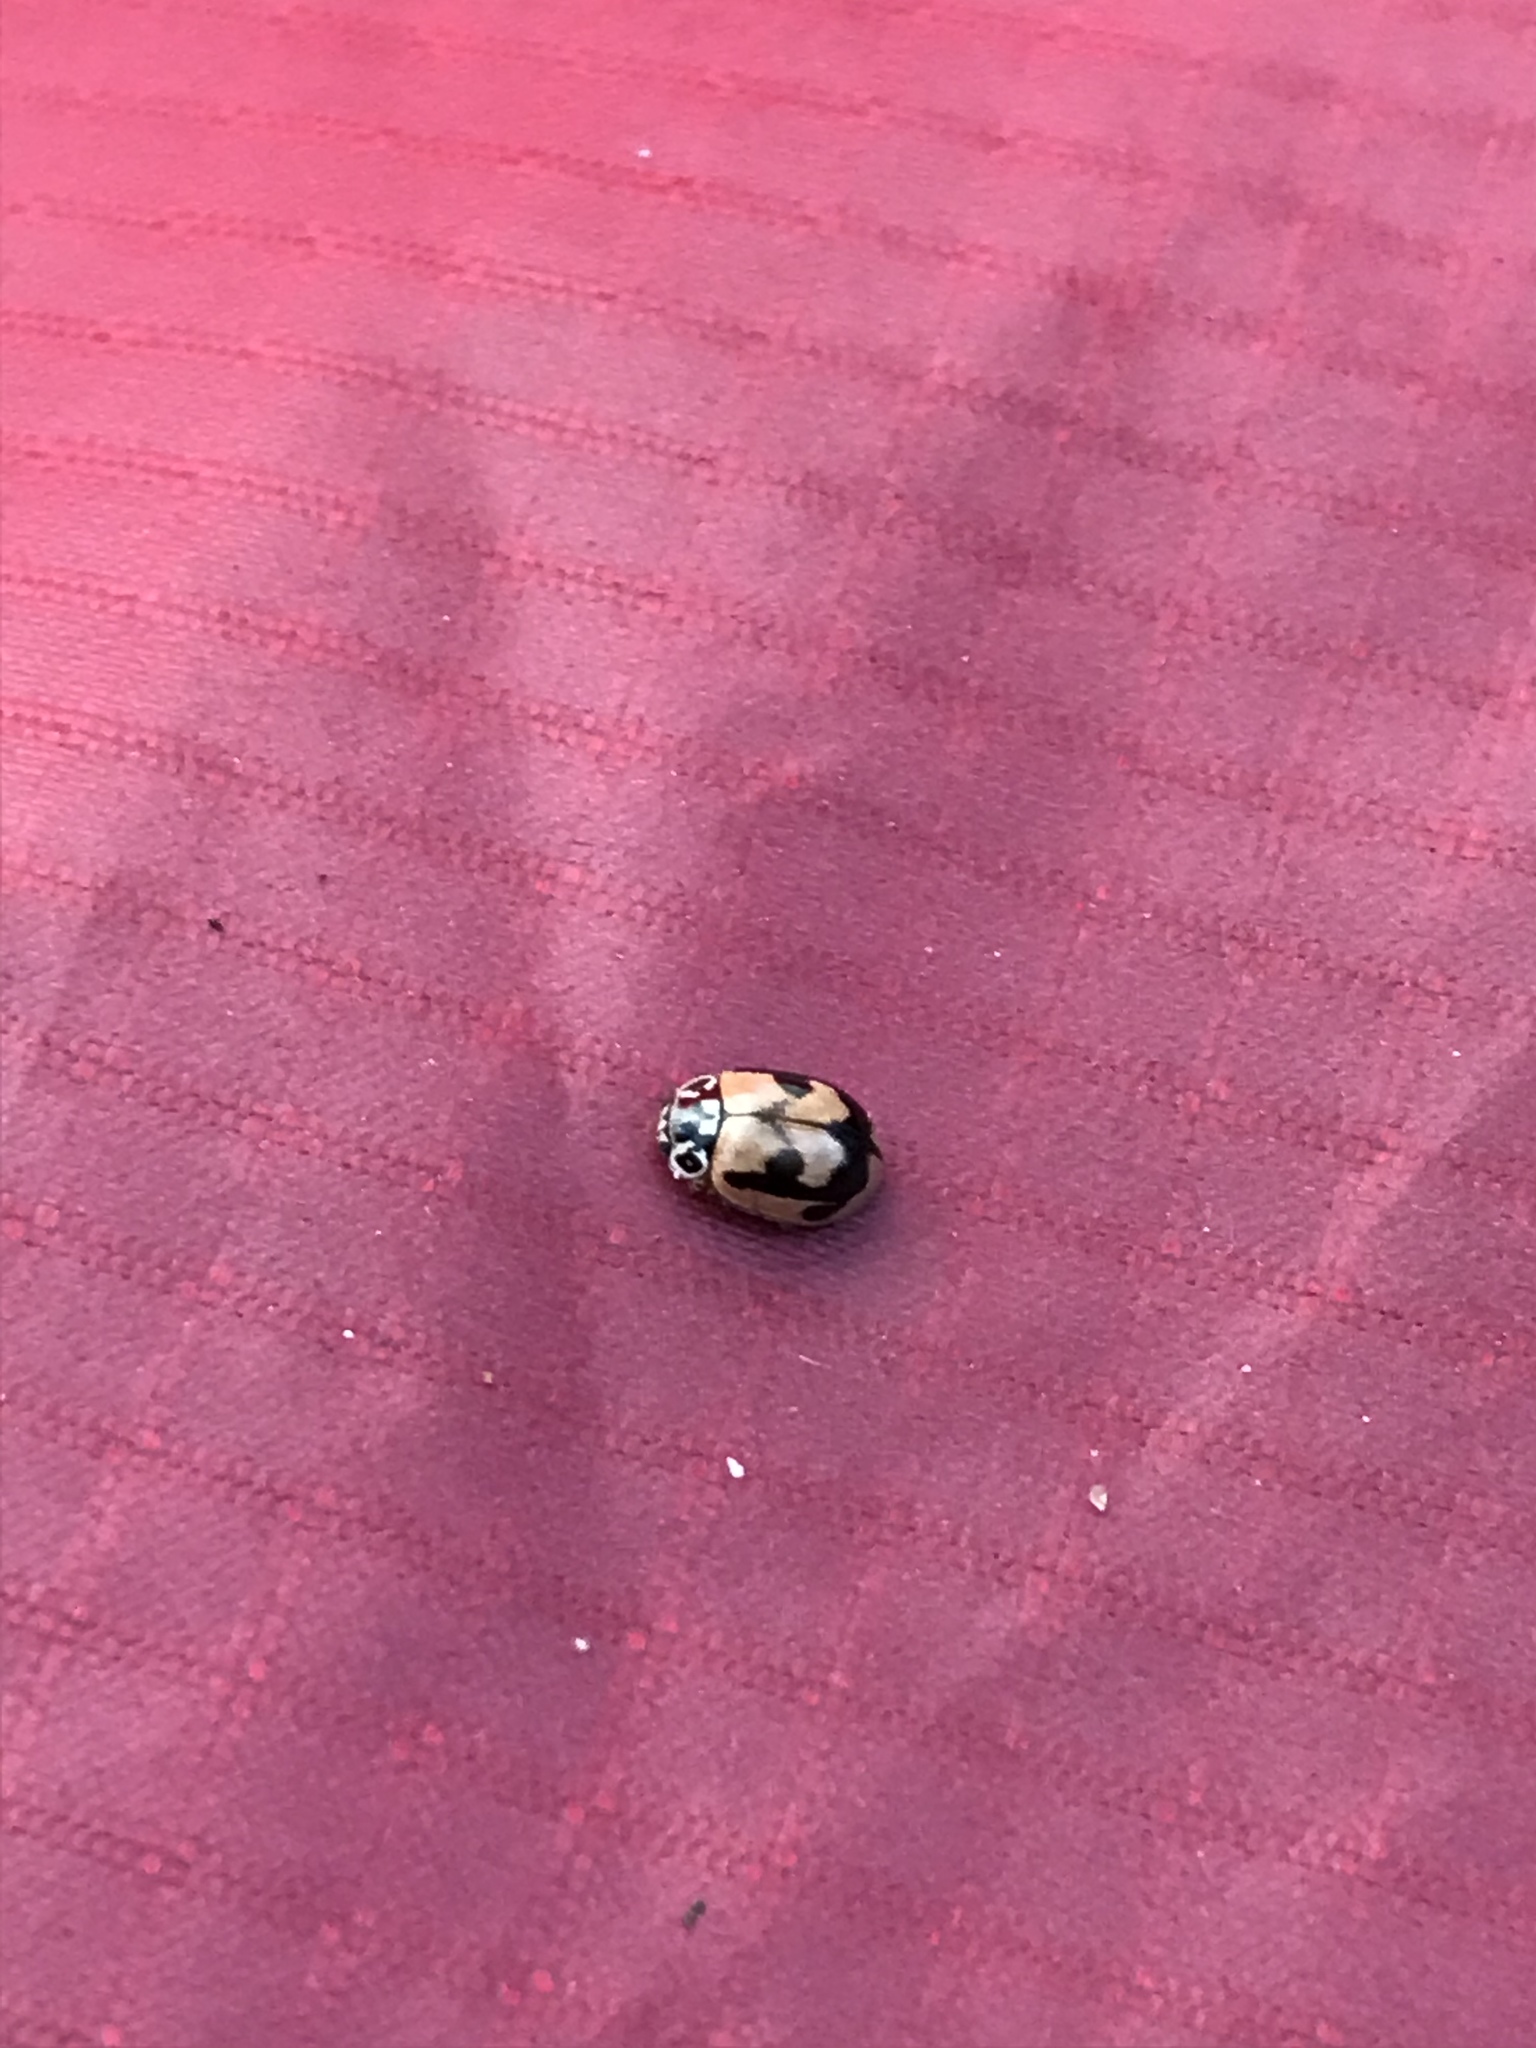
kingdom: Animalia
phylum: Arthropoda
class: Insecta
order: Coleoptera
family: Coccinellidae
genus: Mulsantina
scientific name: Mulsantina picta
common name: Painted ladybird
